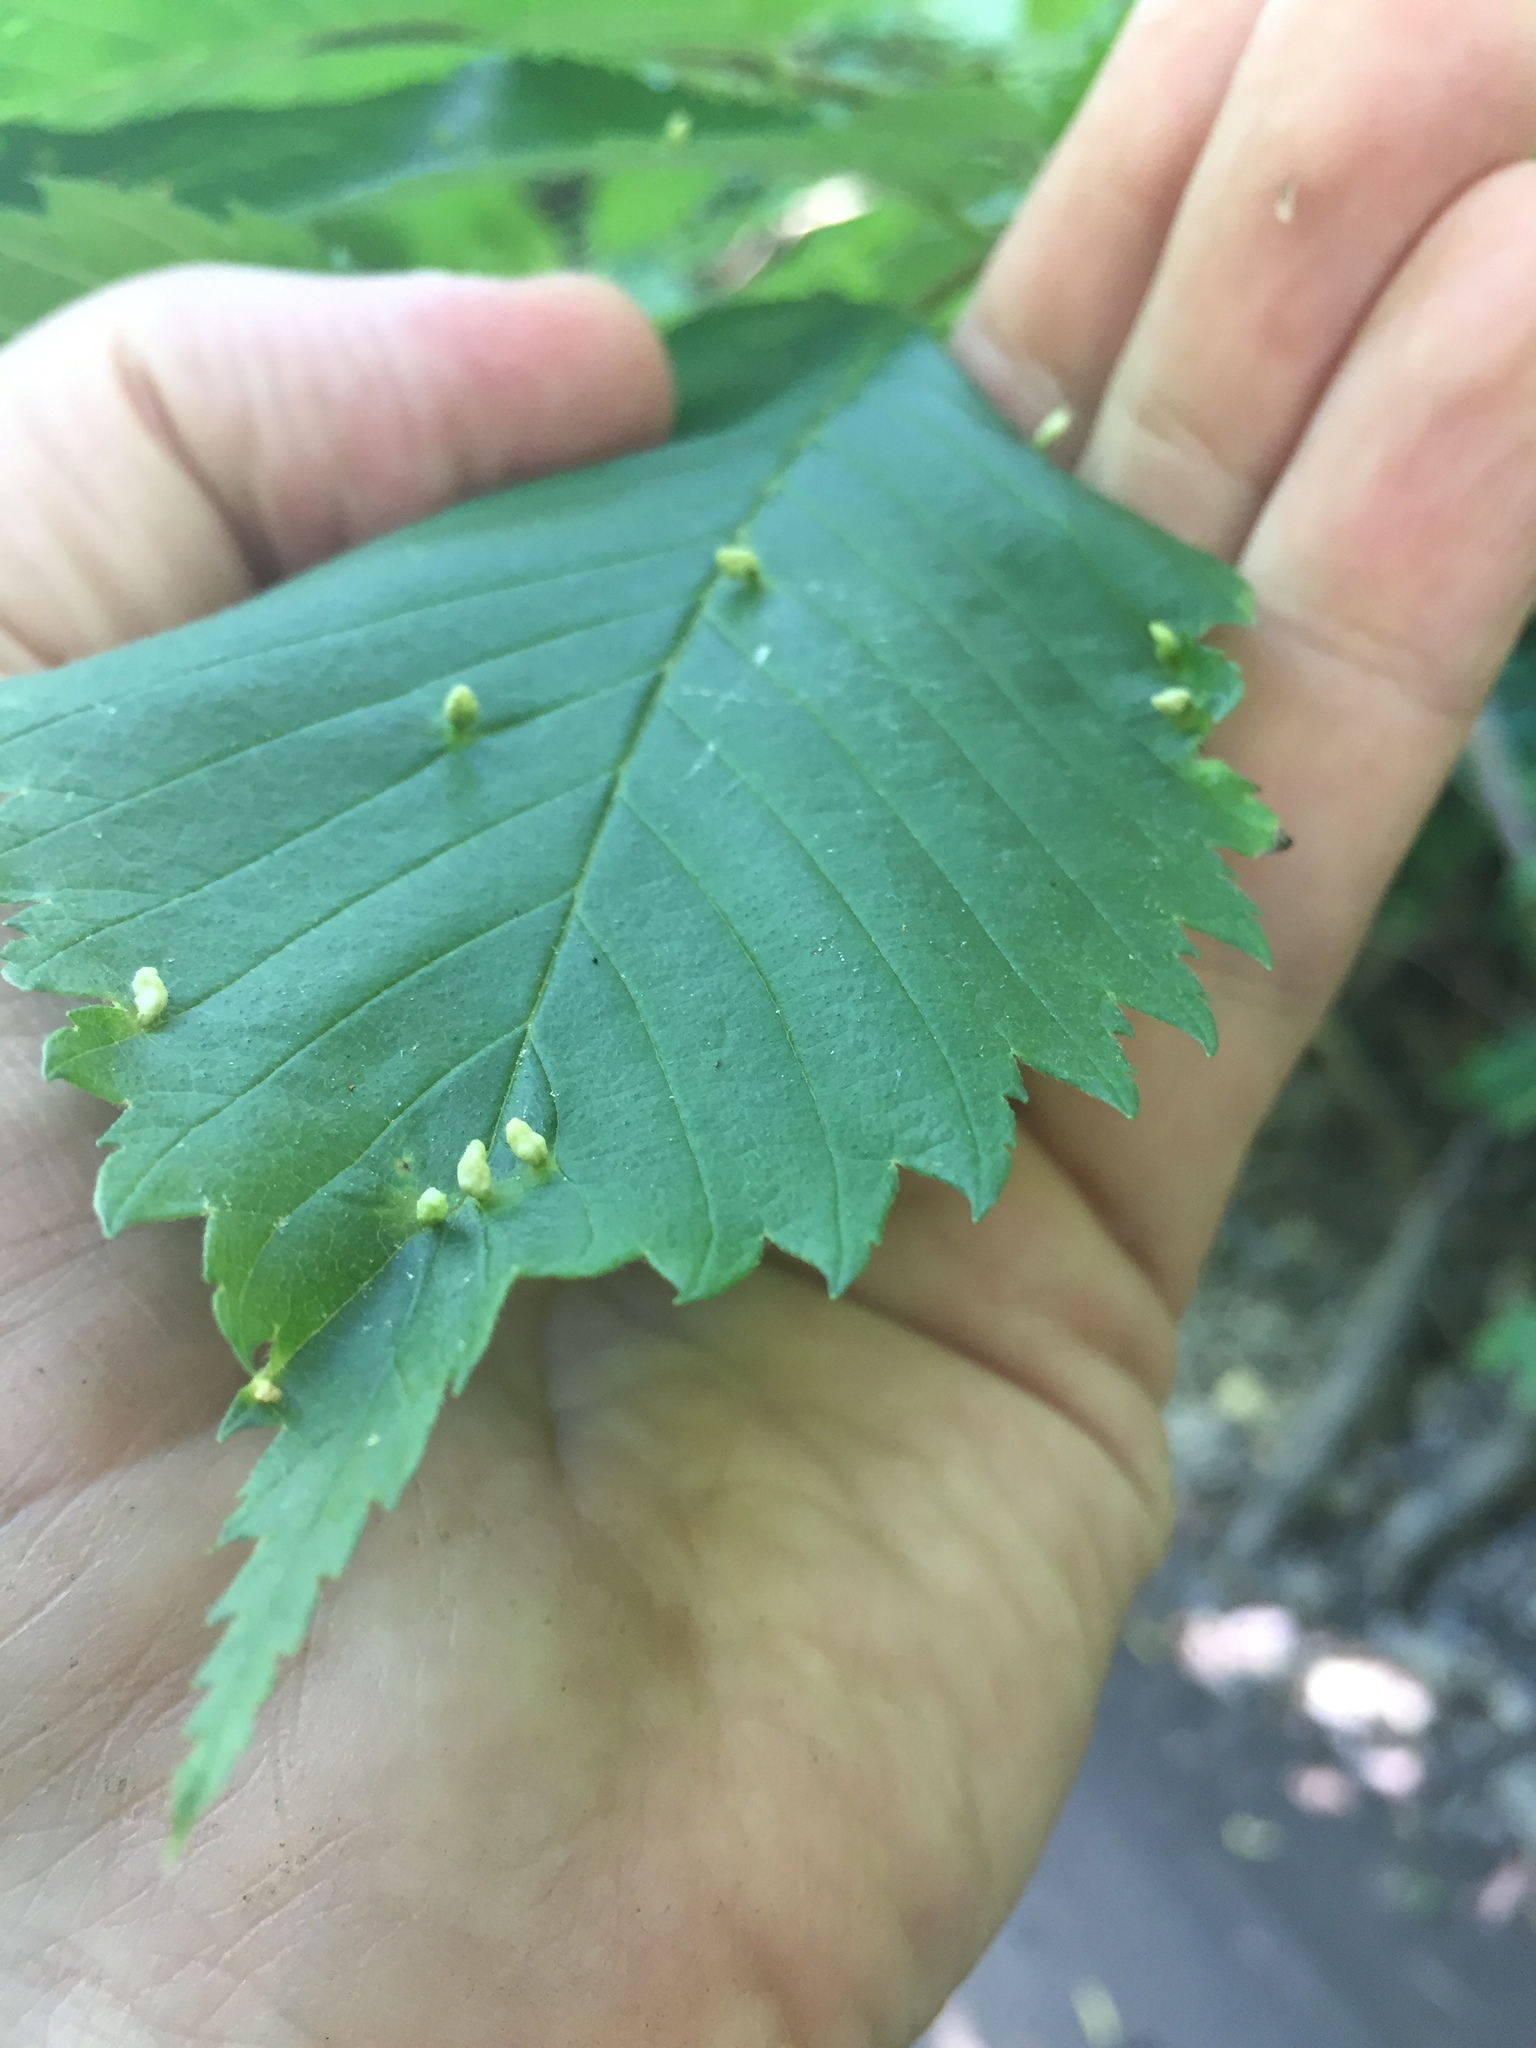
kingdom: Animalia
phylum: Arthropoda
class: Arachnida
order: Trombidiformes
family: Eriophyidae
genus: Aceria
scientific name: Aceria
